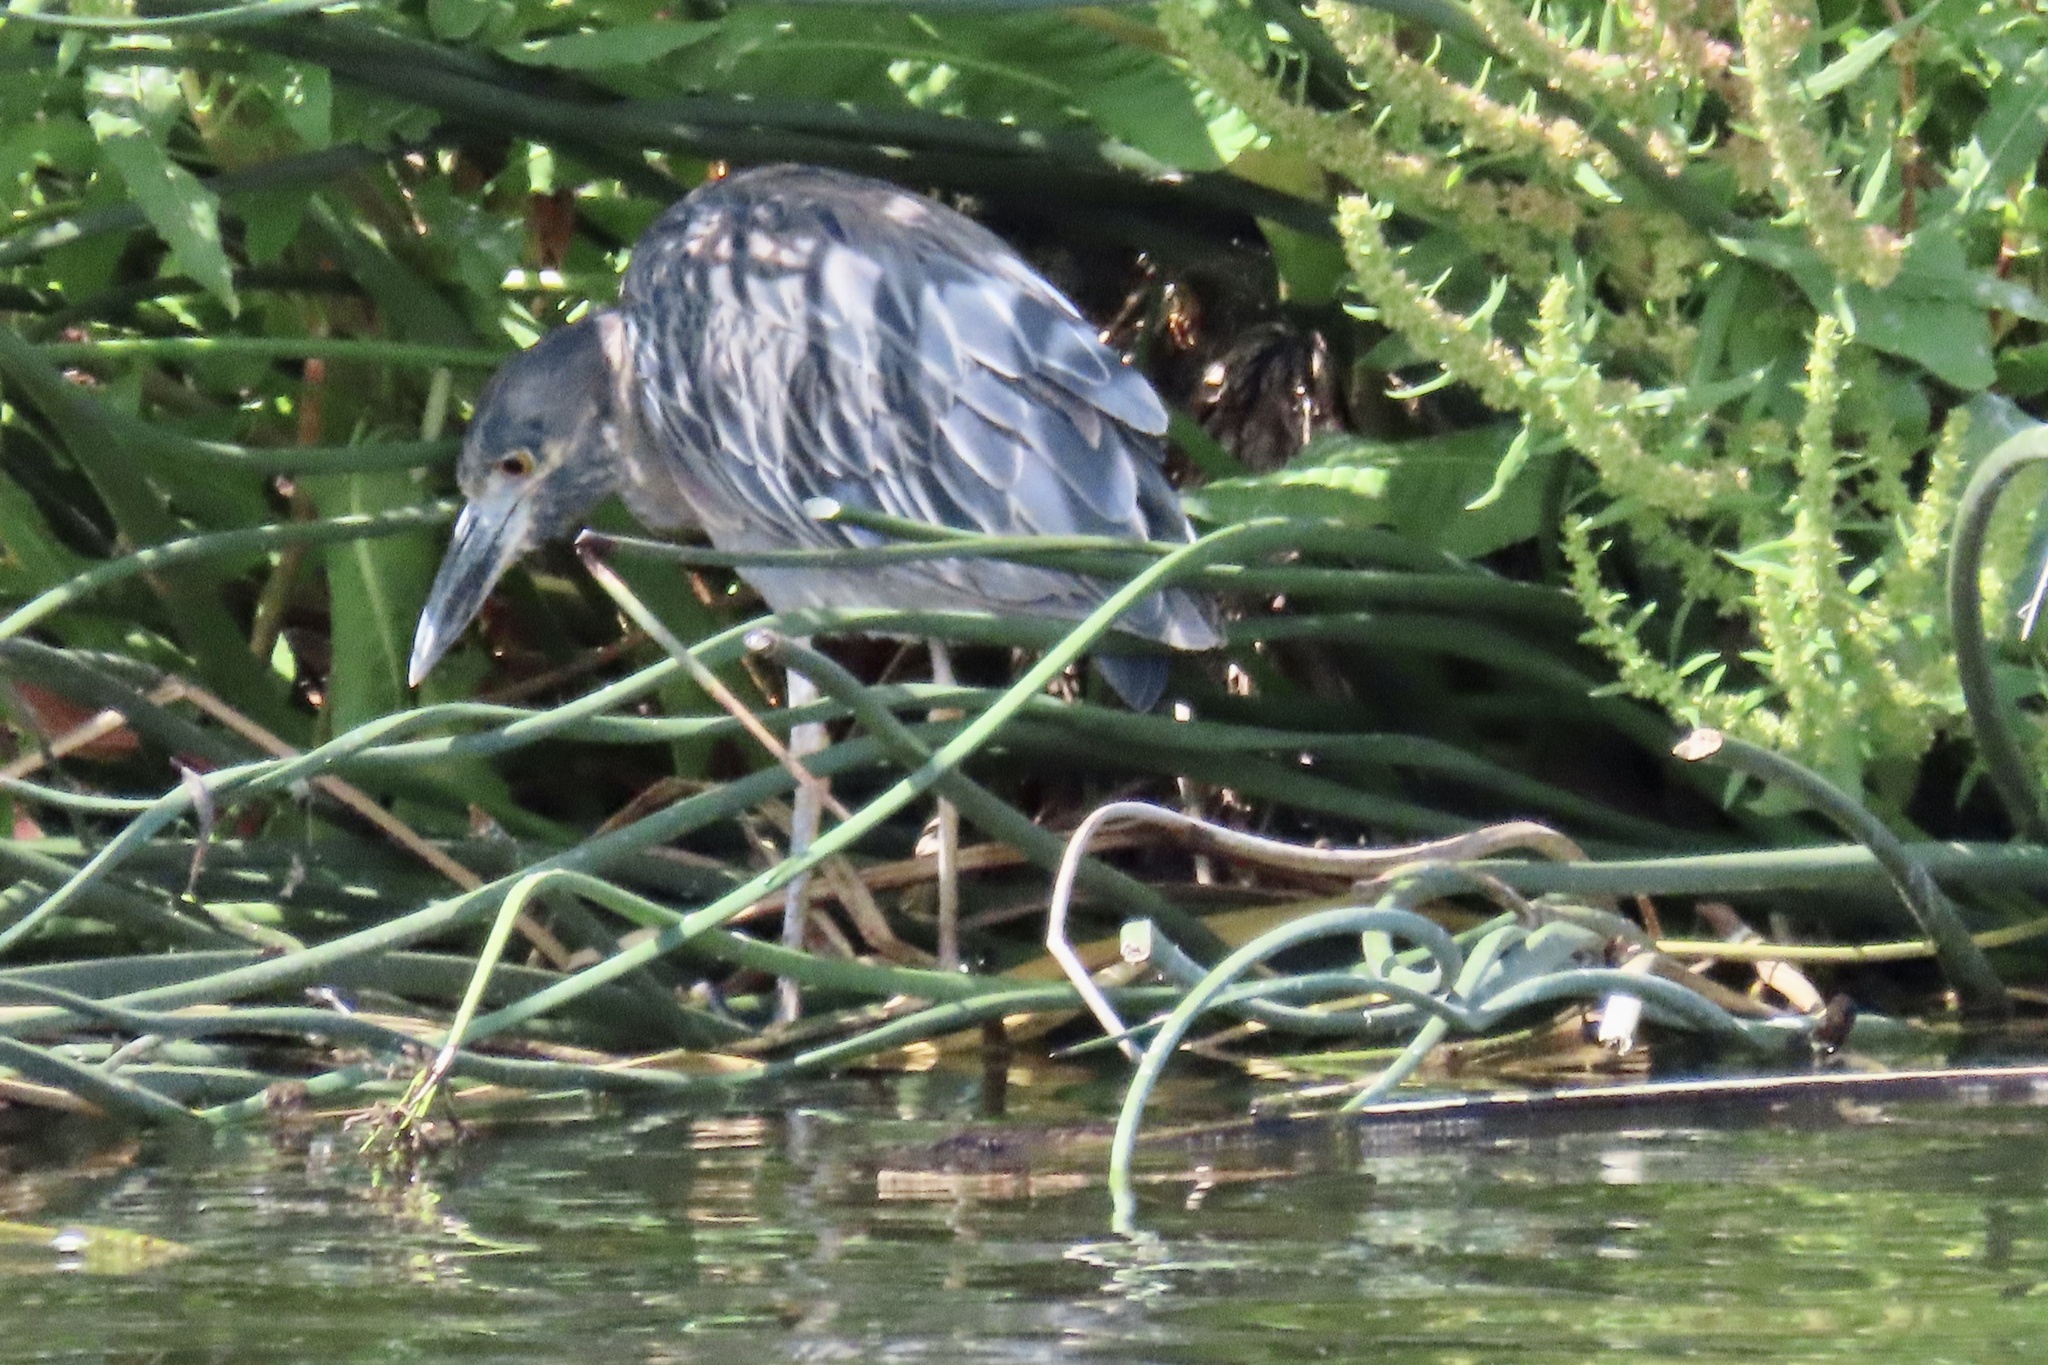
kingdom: Animalia
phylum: Chordata
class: Aves
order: Pelecaniformes
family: Ardeidae
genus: Nyctanassa
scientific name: Nyctanassa violacea
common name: Yellow-crowned night heron
